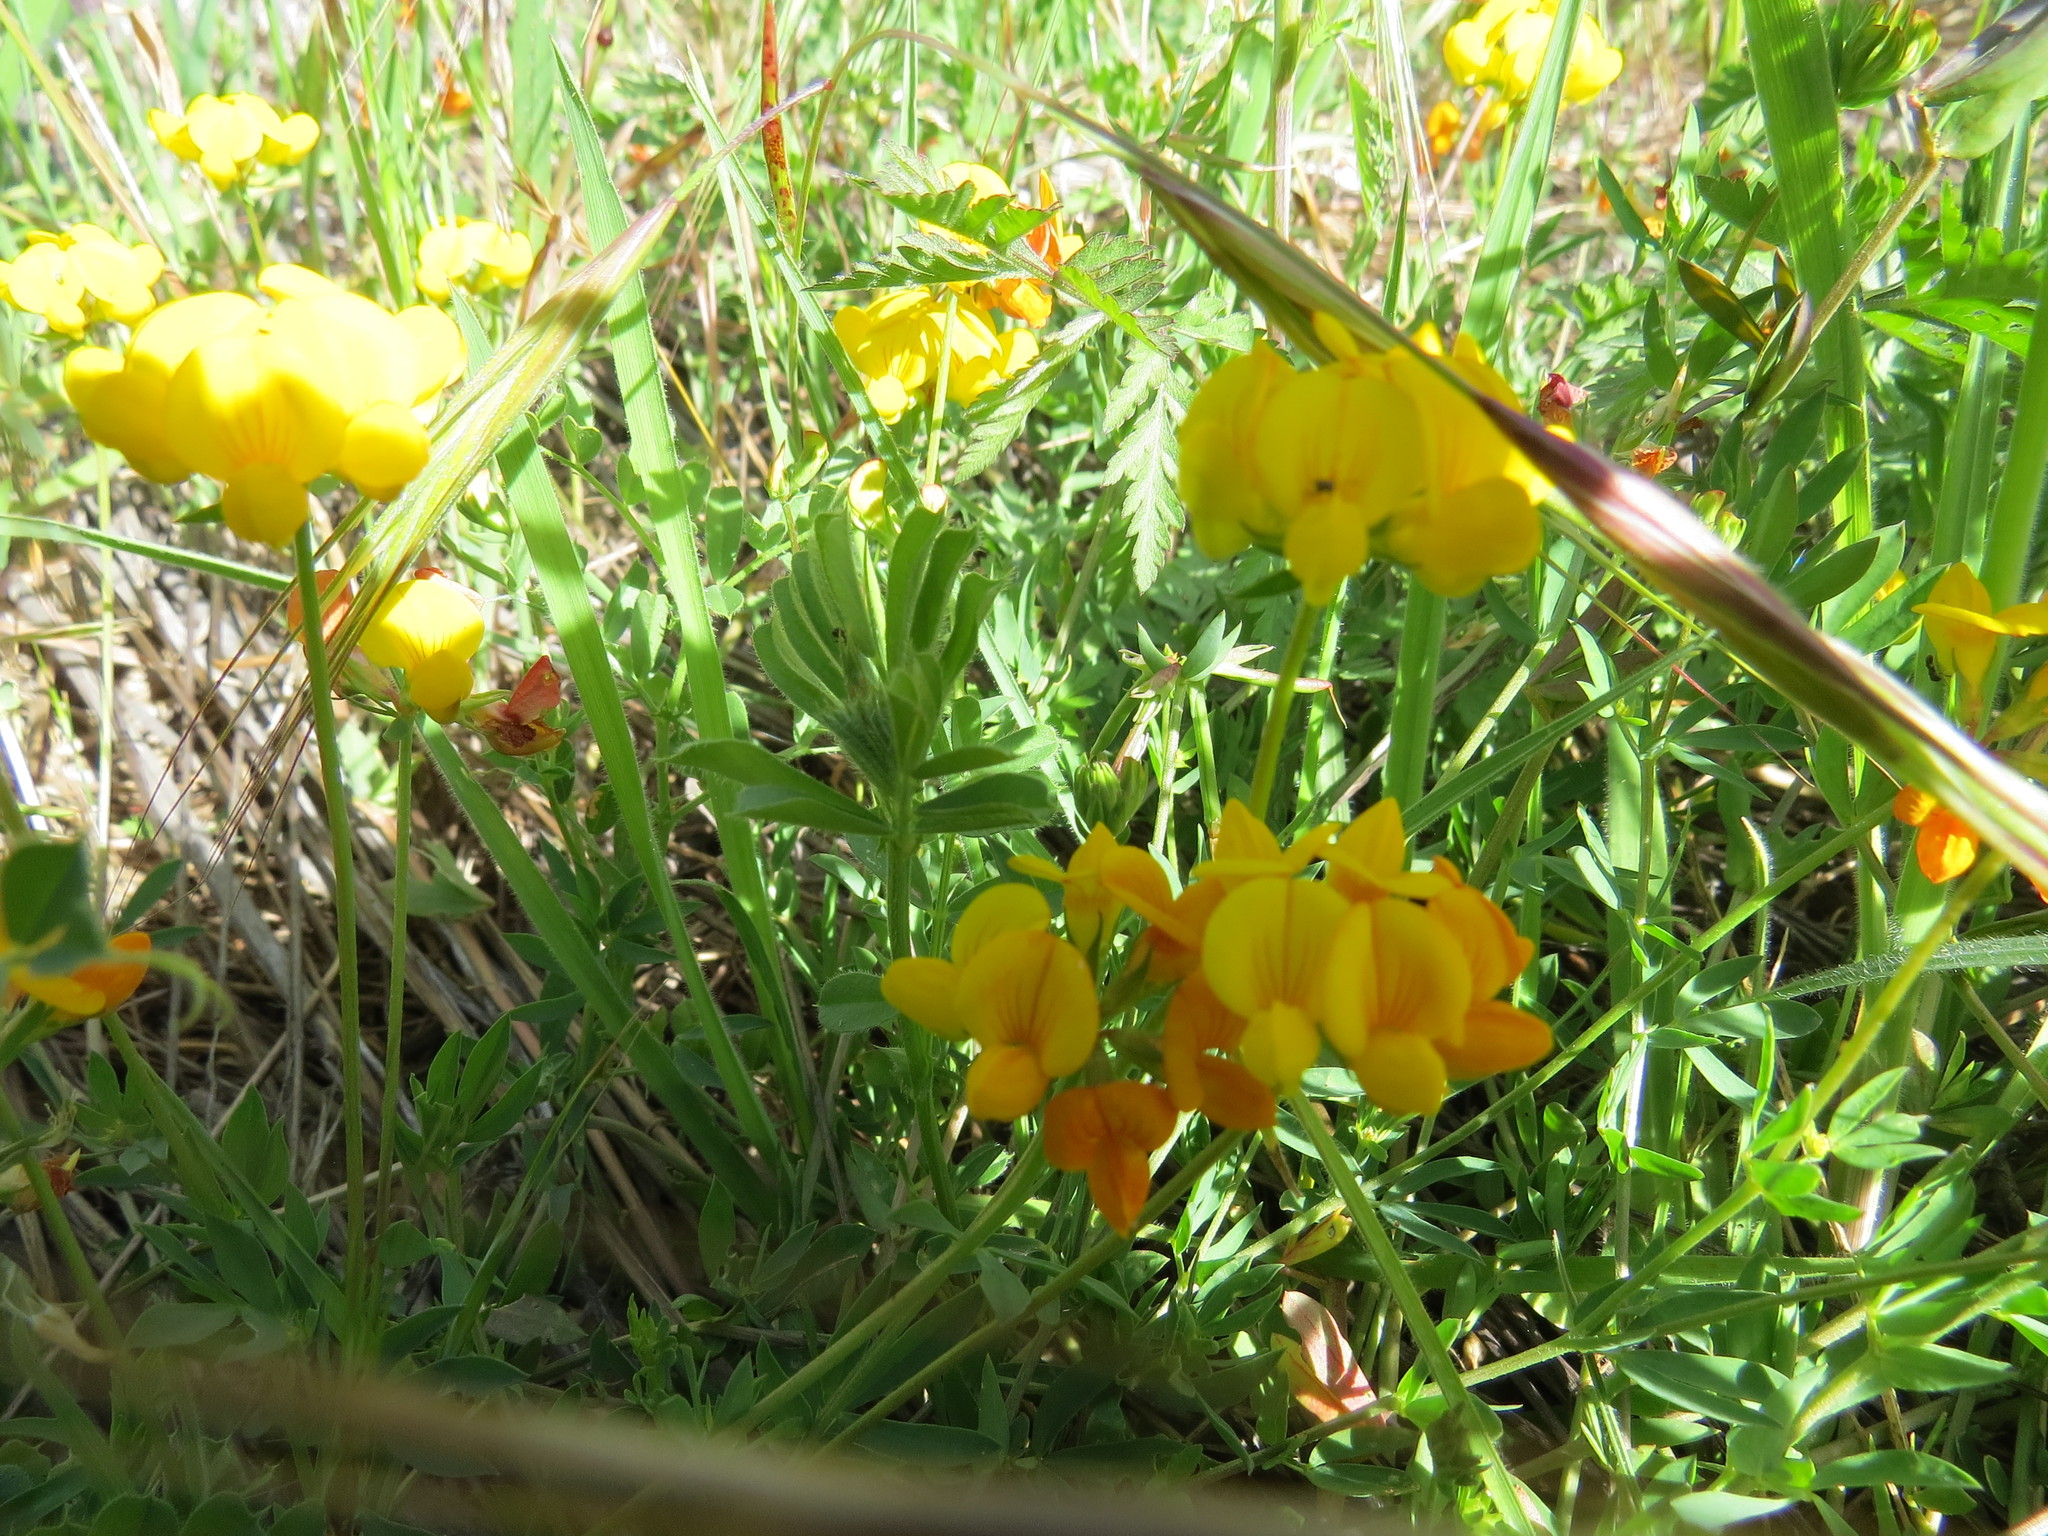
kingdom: Plantae
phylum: Tracheophyta
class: Magnoliopsida
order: Fabales
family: Fabaceae
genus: Lotus
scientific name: Lotus corniculatus
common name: Common bird's-foot-trefoil
